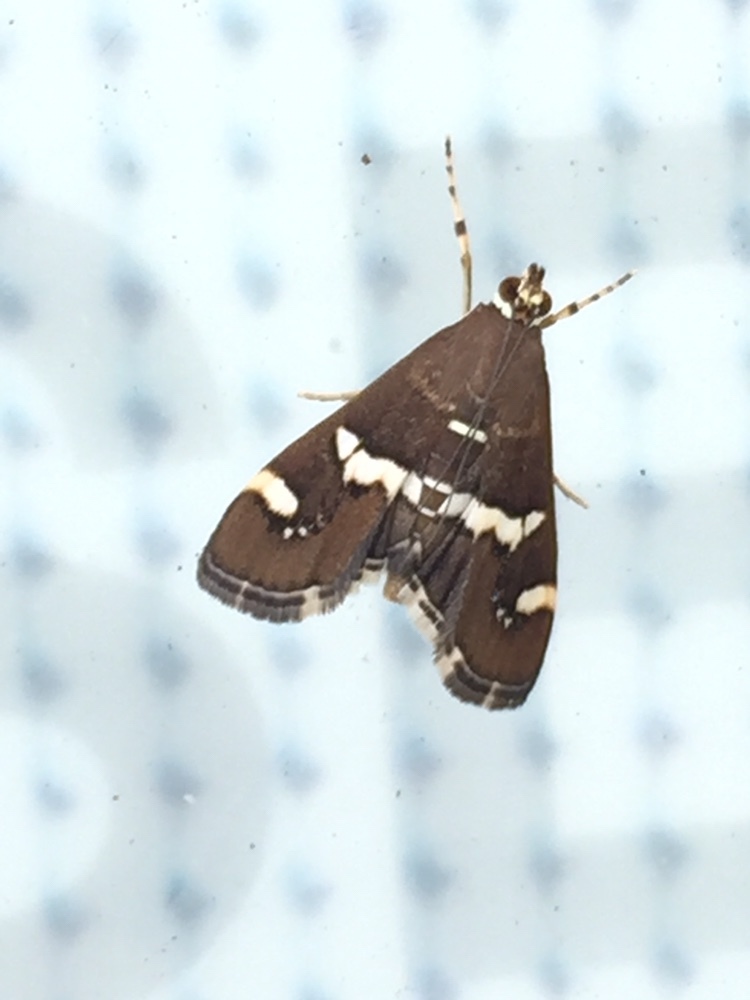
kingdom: Animalia
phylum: Arthropoda
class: Insecta
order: Lepidoptera
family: Crambidae
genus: Spoladea
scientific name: Spoladea recurvalis
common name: Beet webworm moth
